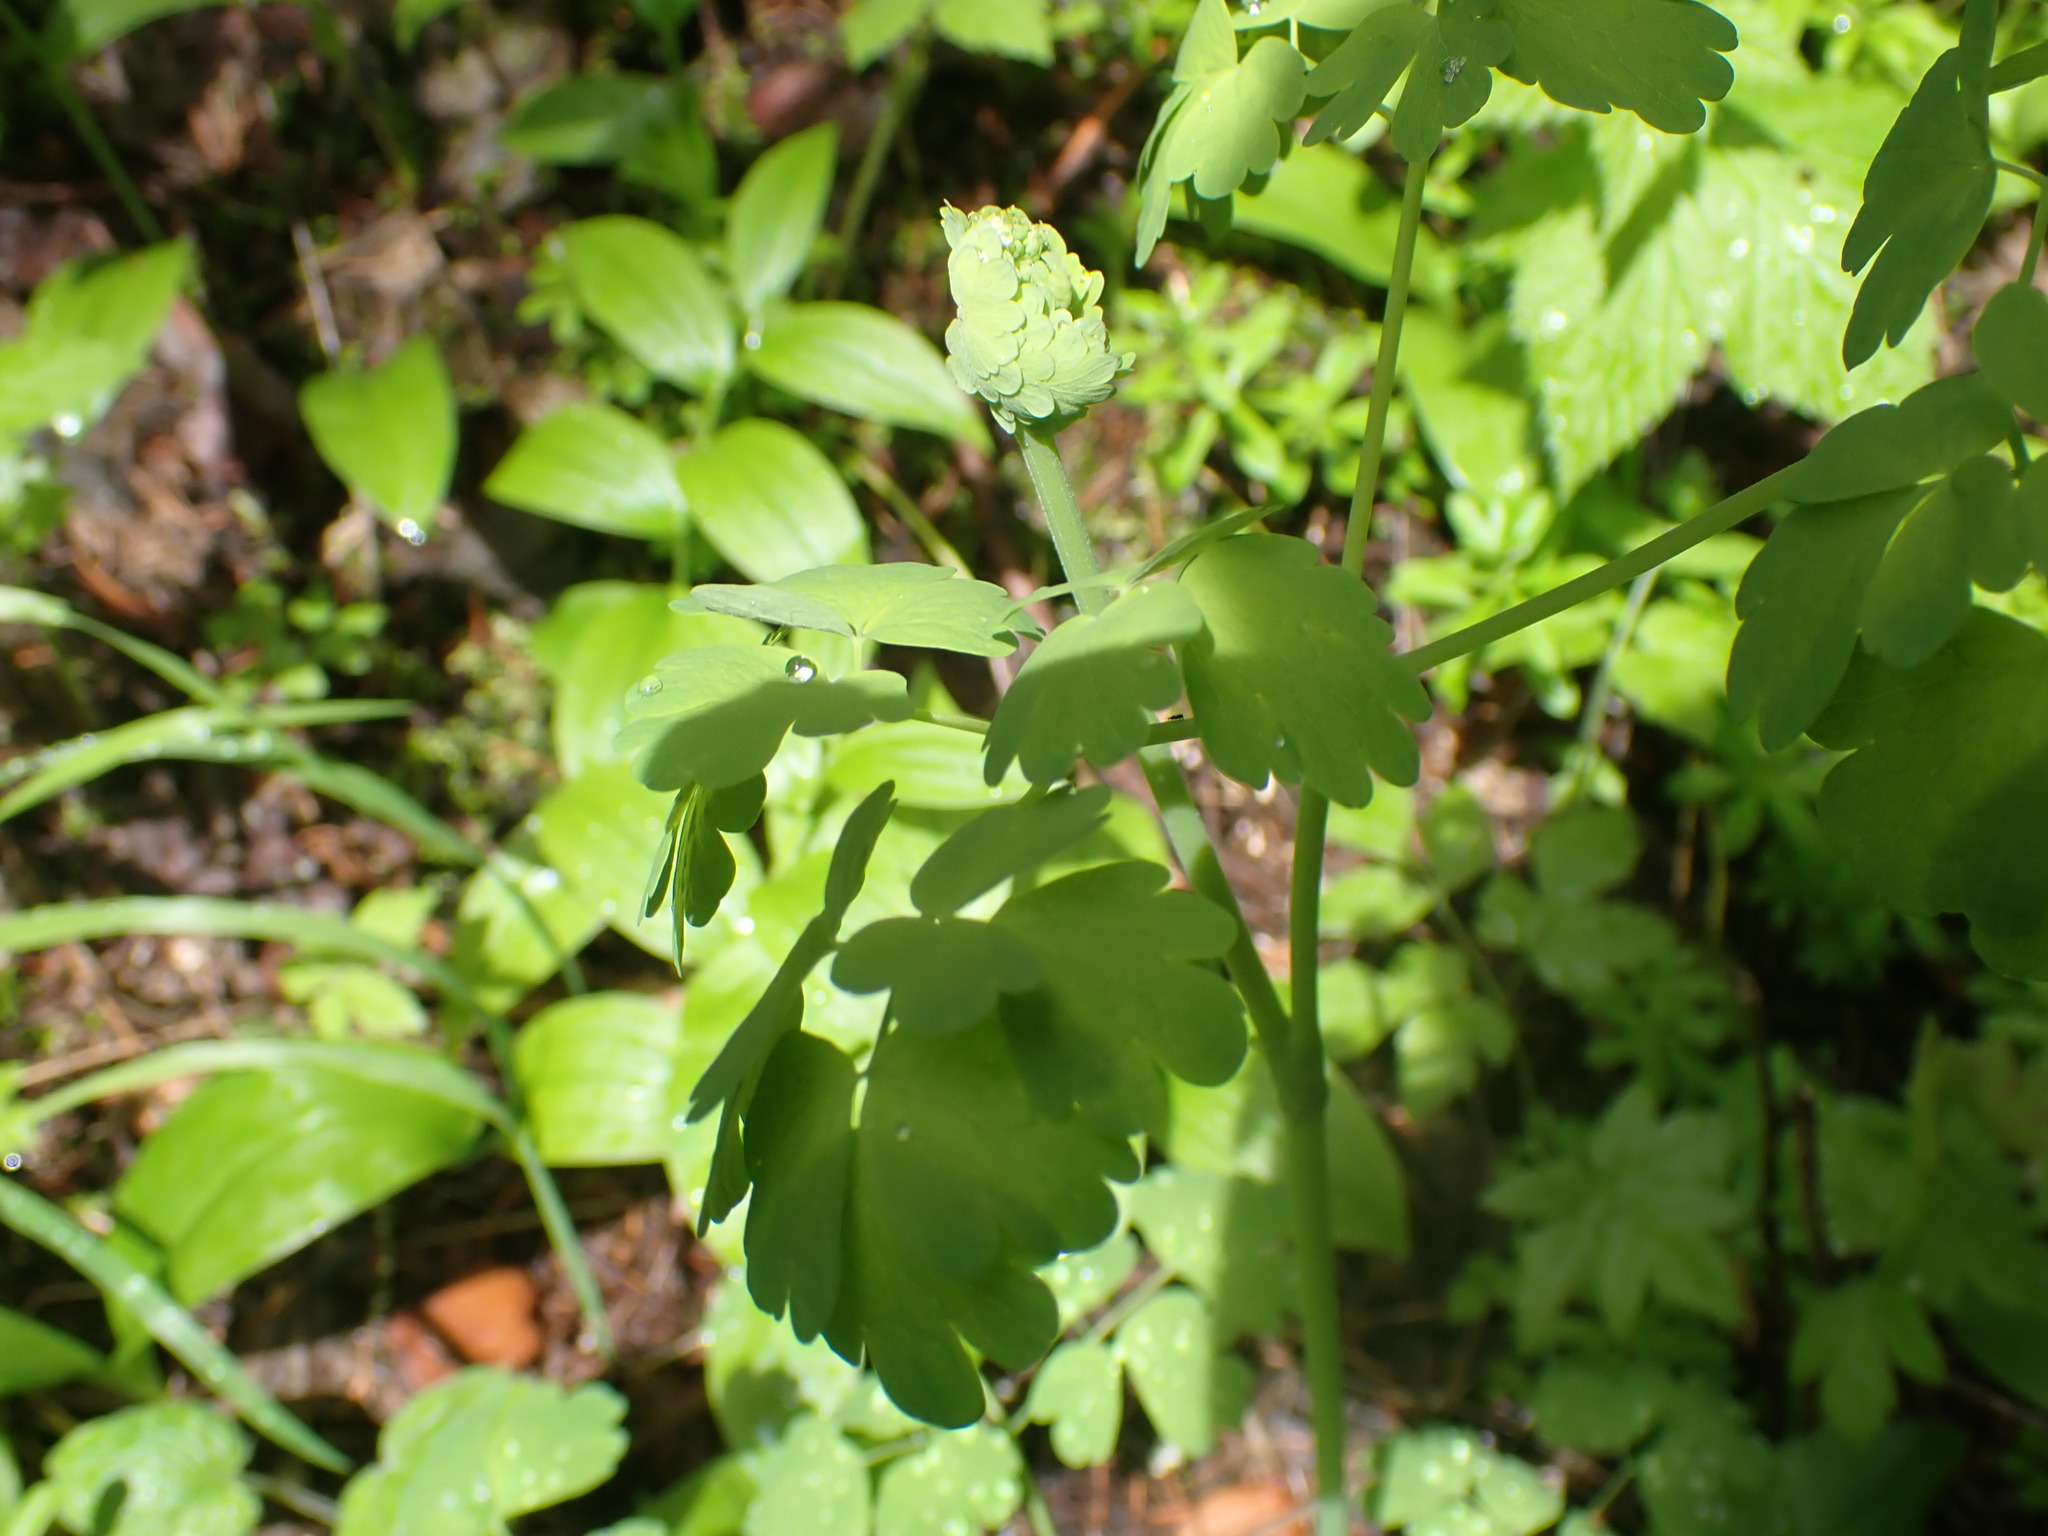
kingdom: Plantae
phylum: Tracheophyta
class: Magnoliopsida
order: Ranunculales
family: Ranunculaceae
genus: Thalictrum
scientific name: Thalictrum occidentale
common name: Western meadow-rue
